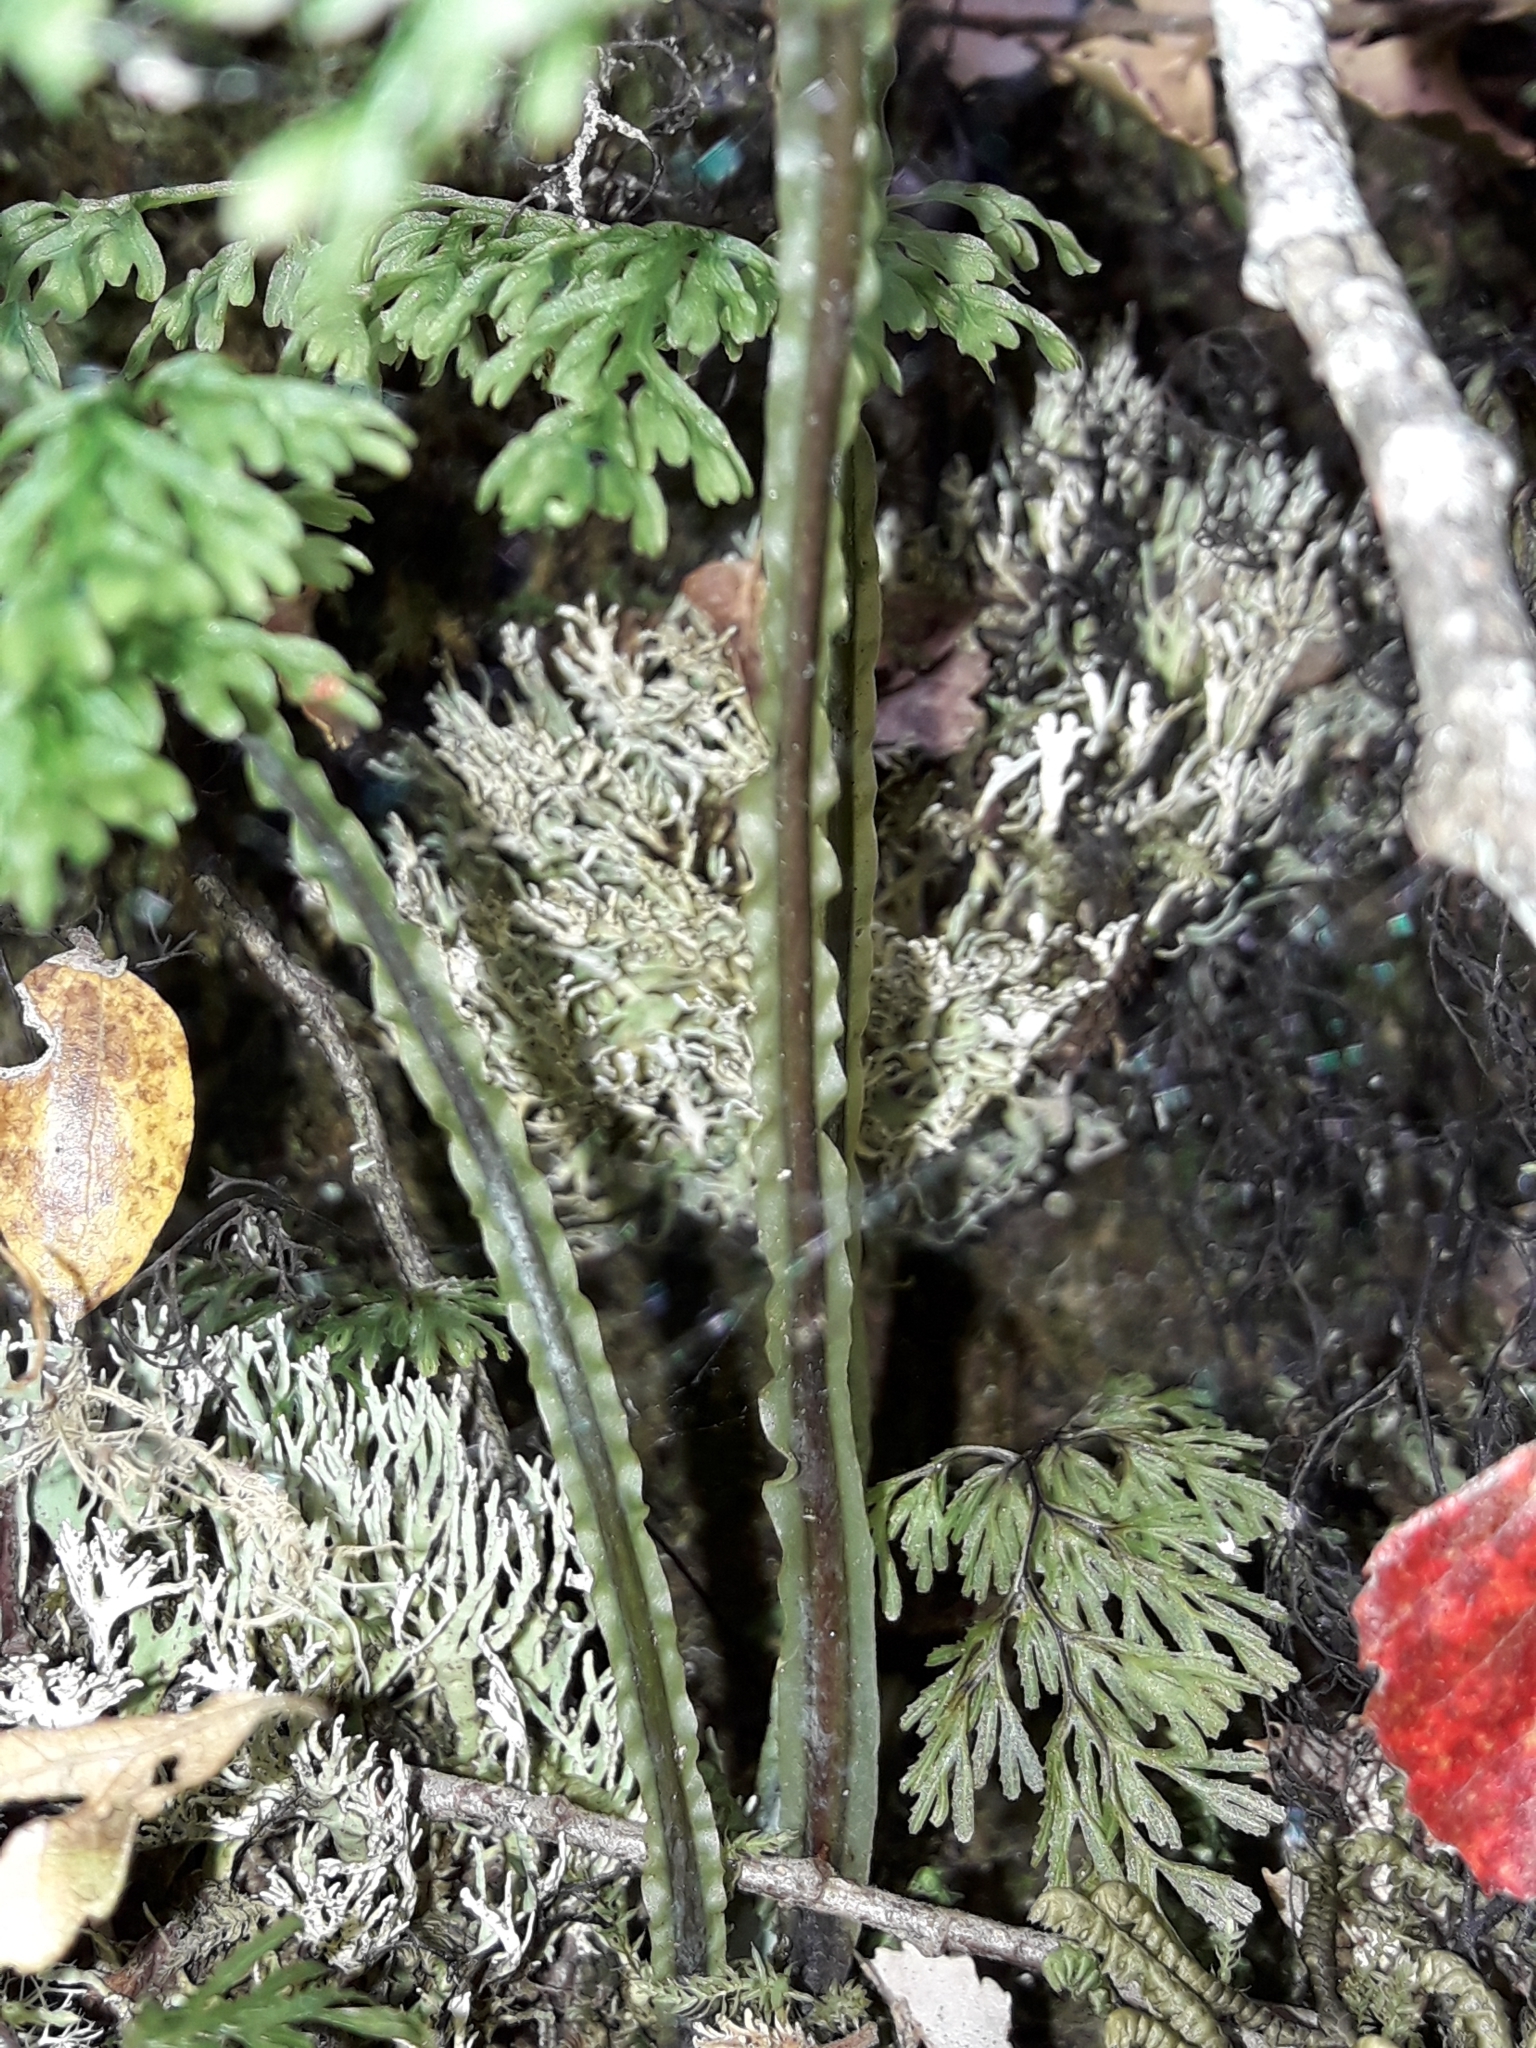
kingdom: Plantae
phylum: Tracheophyta
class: Polypodiopsida
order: Hymenophyllales
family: Hymenophyllaceae
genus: Hymenophyllum
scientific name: Hymenophyllum pulcherrimum
